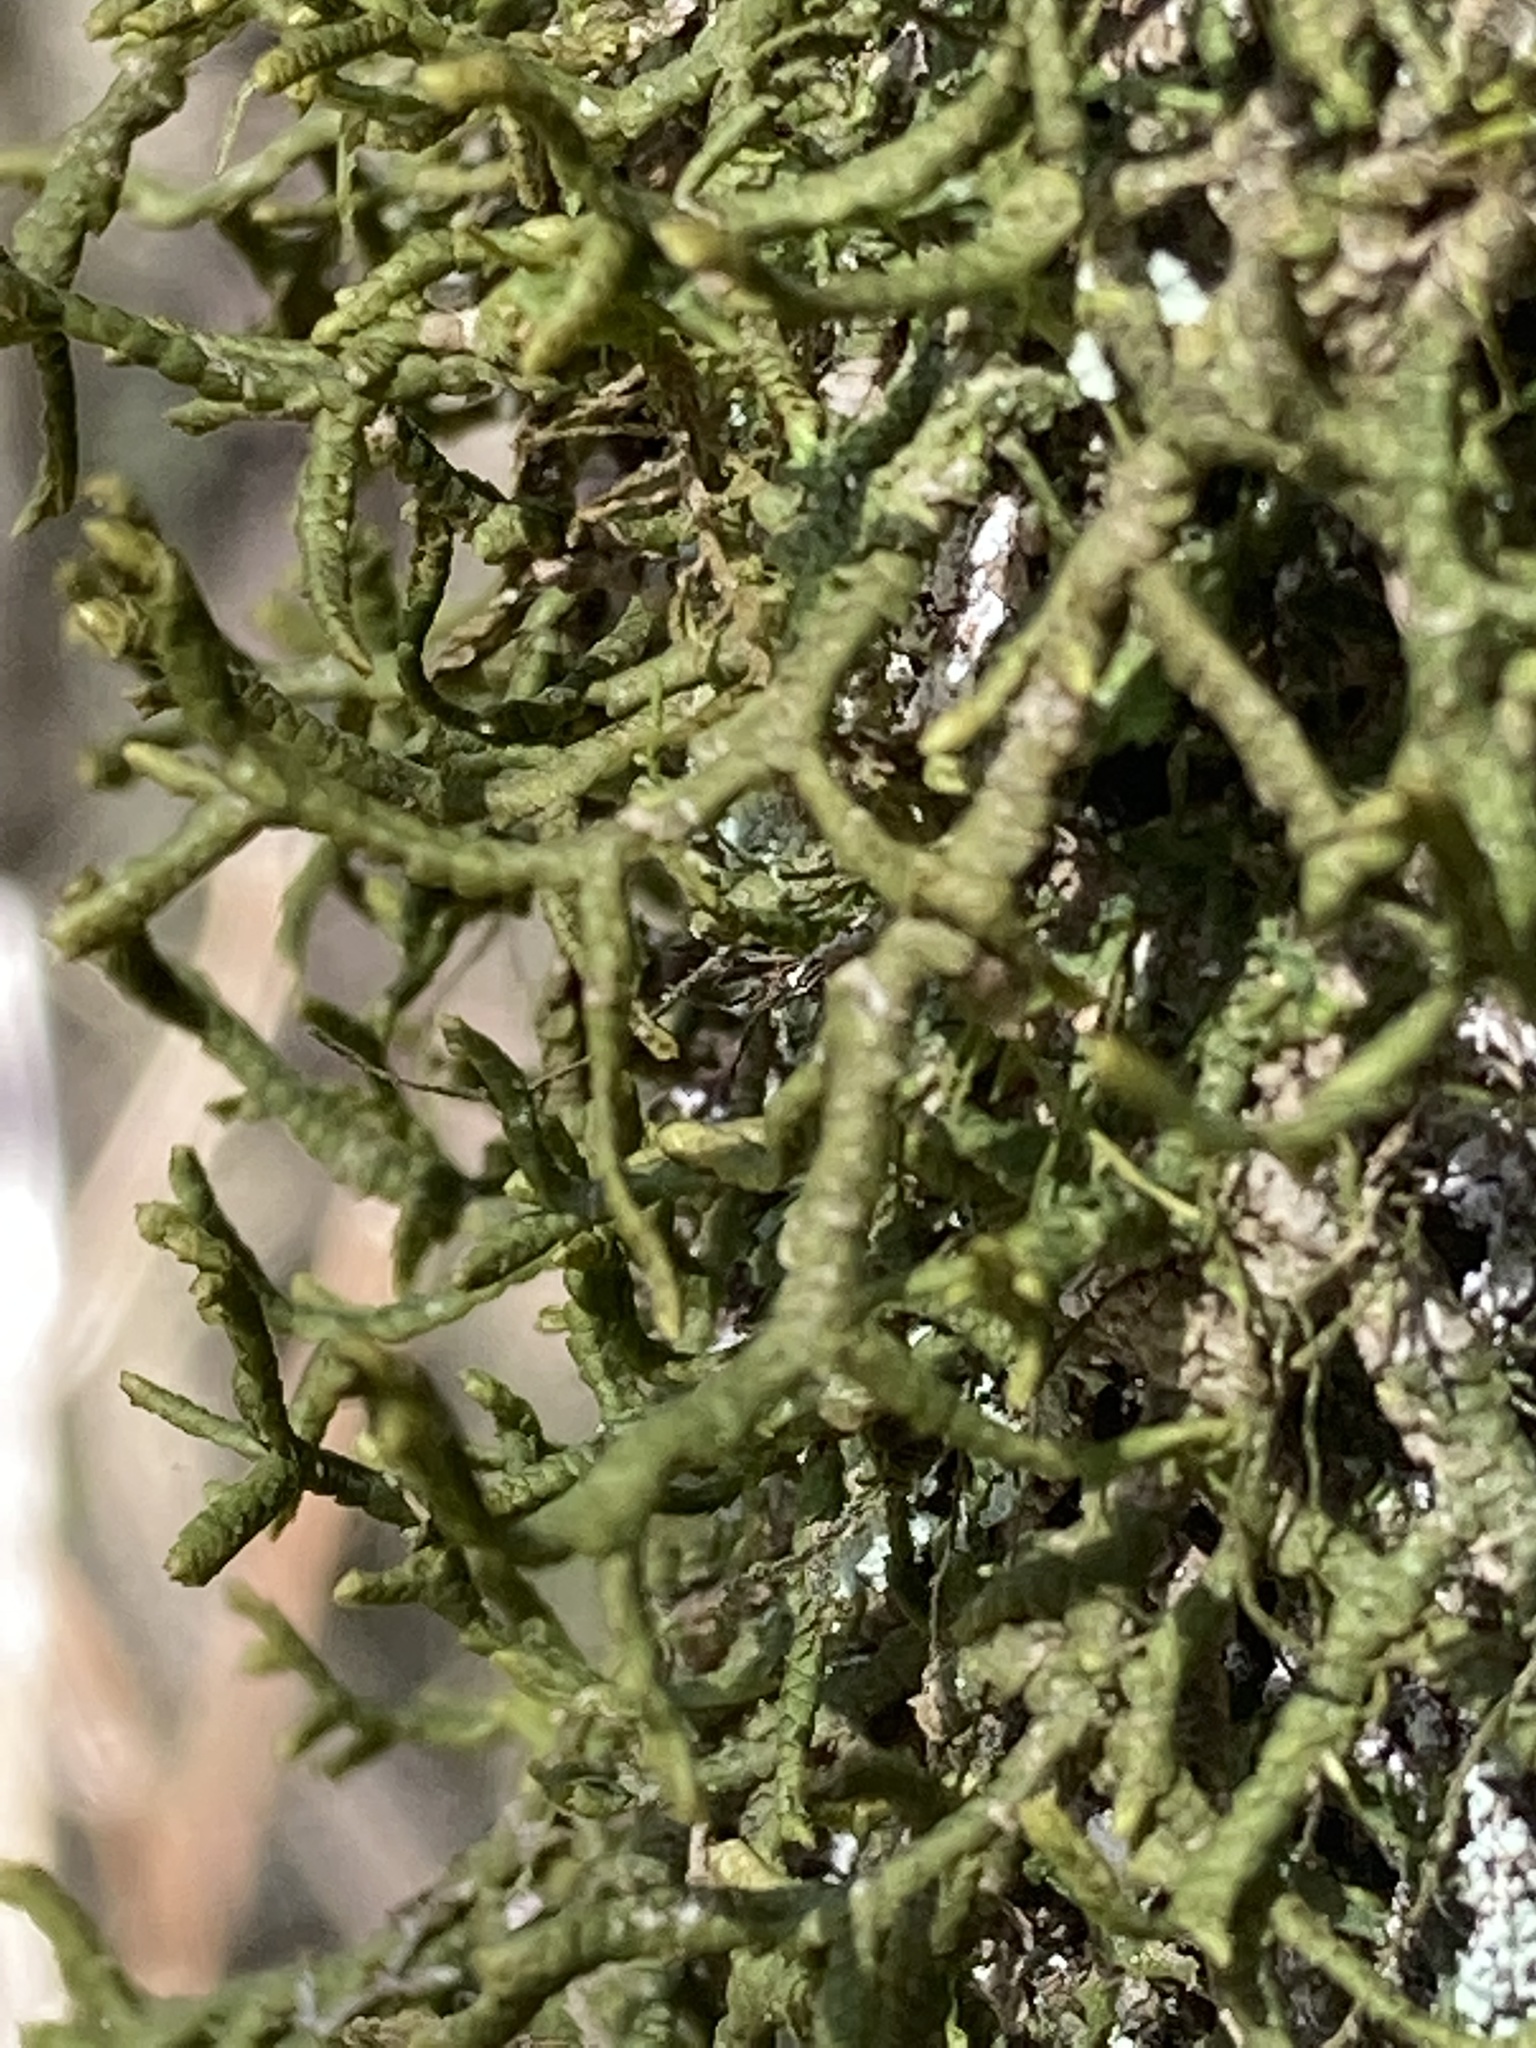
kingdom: Plantae
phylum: Marchantiophyta
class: Jungermanniopsida
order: Porellales
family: Porellaceae
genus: Porella
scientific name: Porella platyphylla
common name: Wall scalewort
